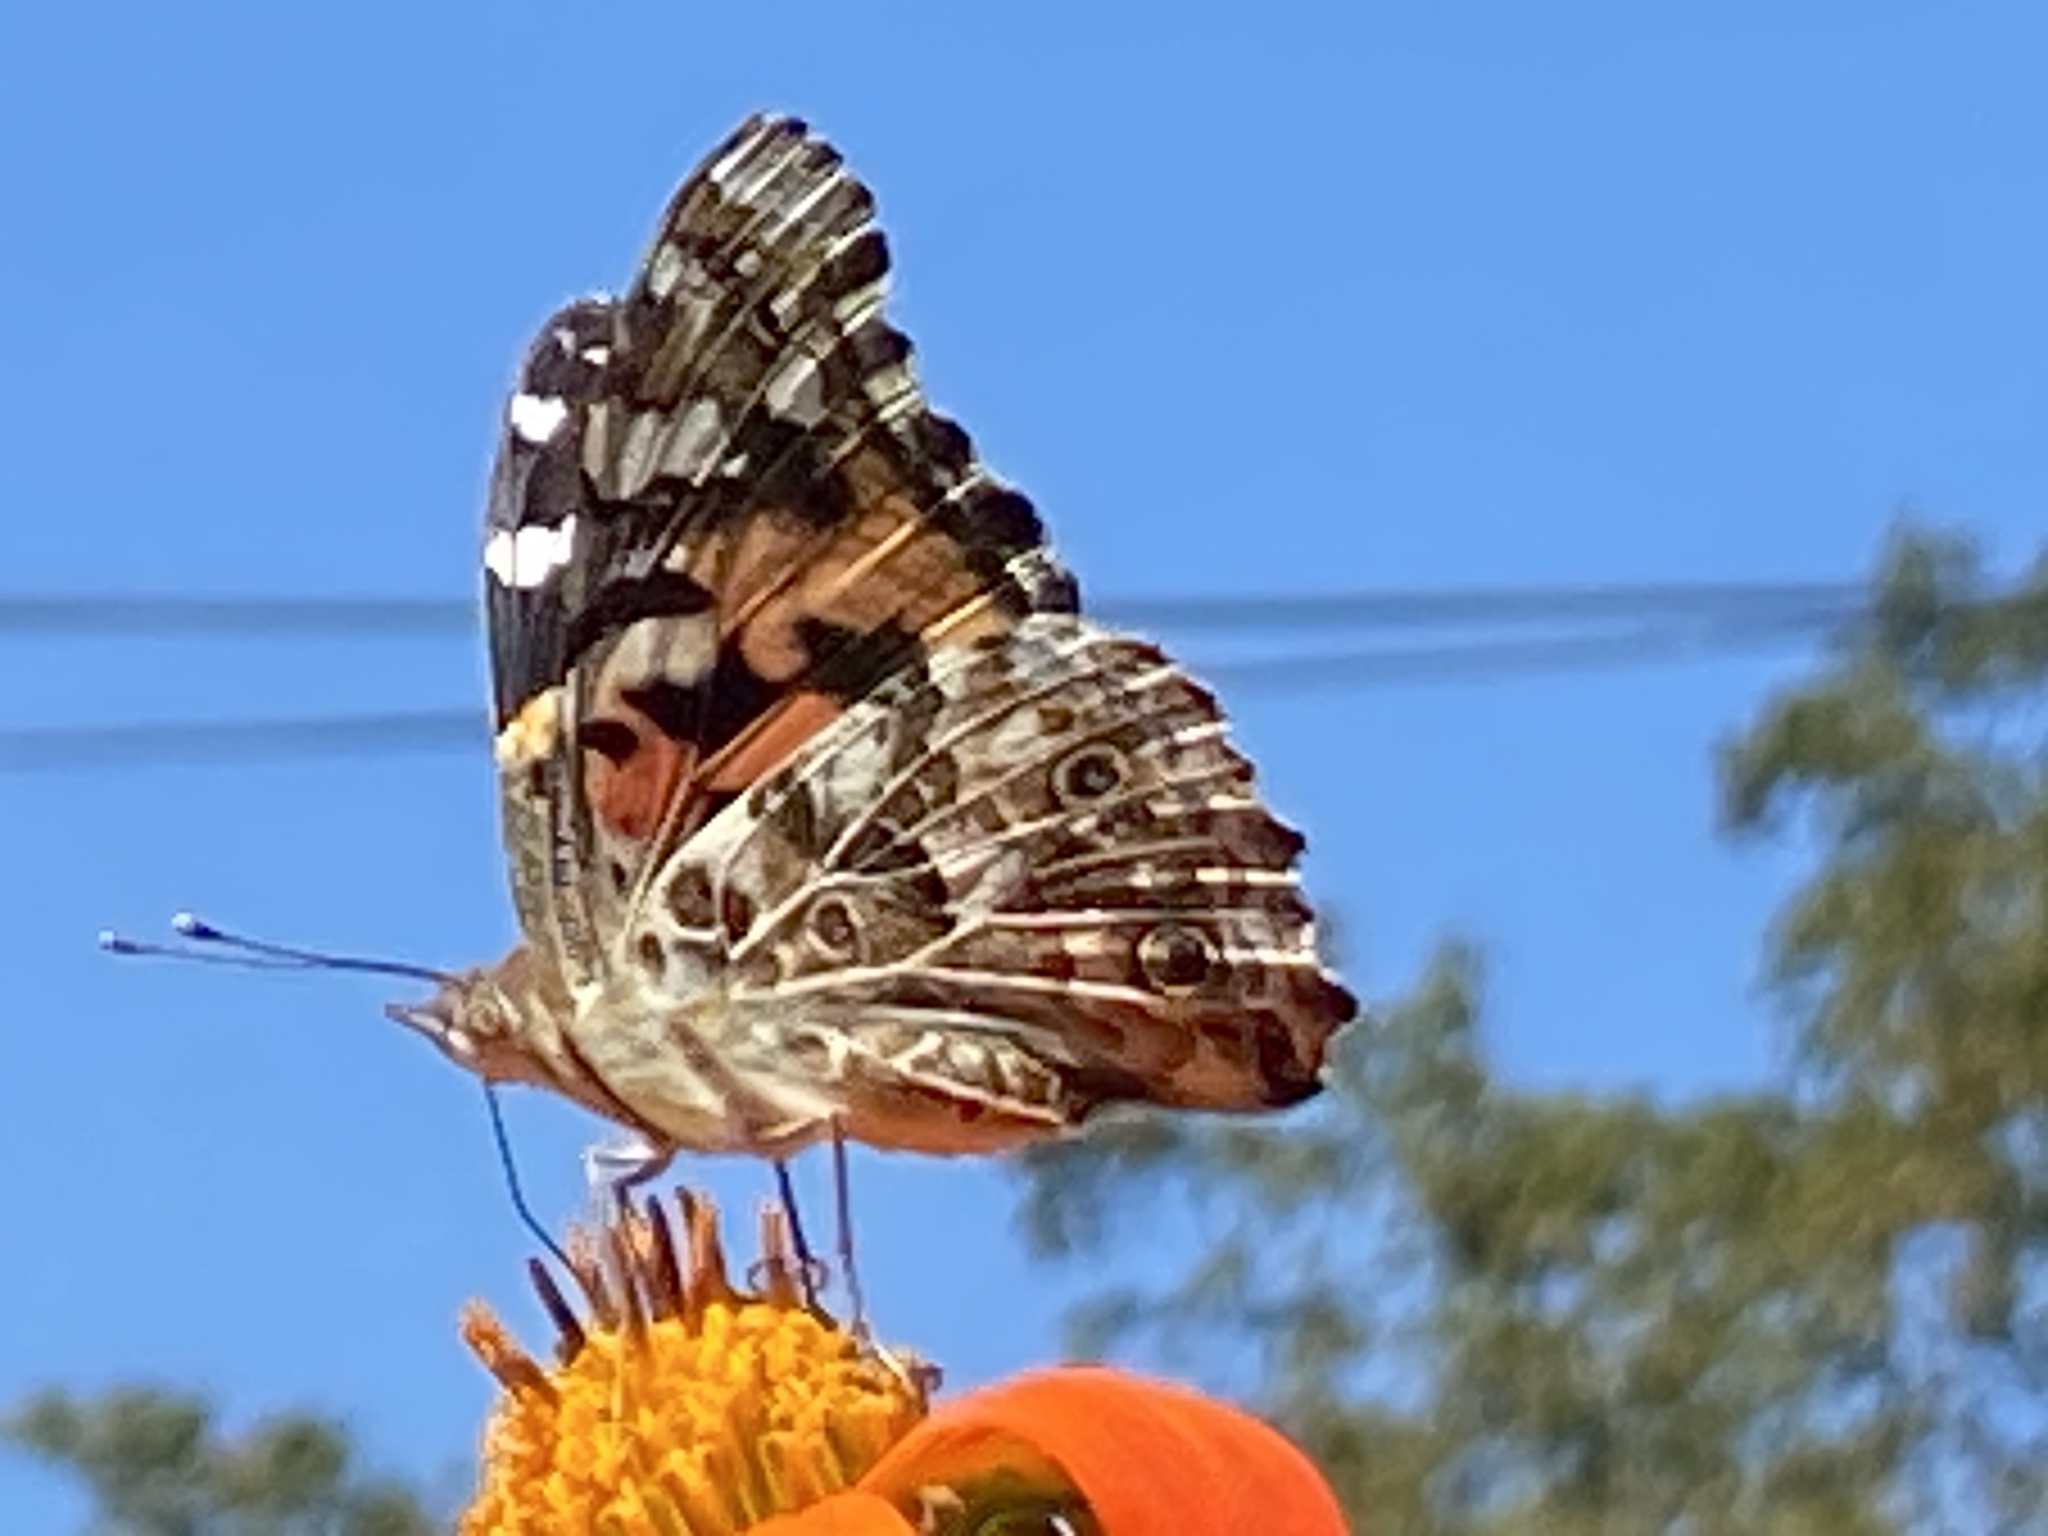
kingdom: Animalia
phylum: Arthropoda
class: Insecta
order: Lepidoptera
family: Nymphalidae
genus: Vanessa
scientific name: Vanessa cardui
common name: Painted lady
